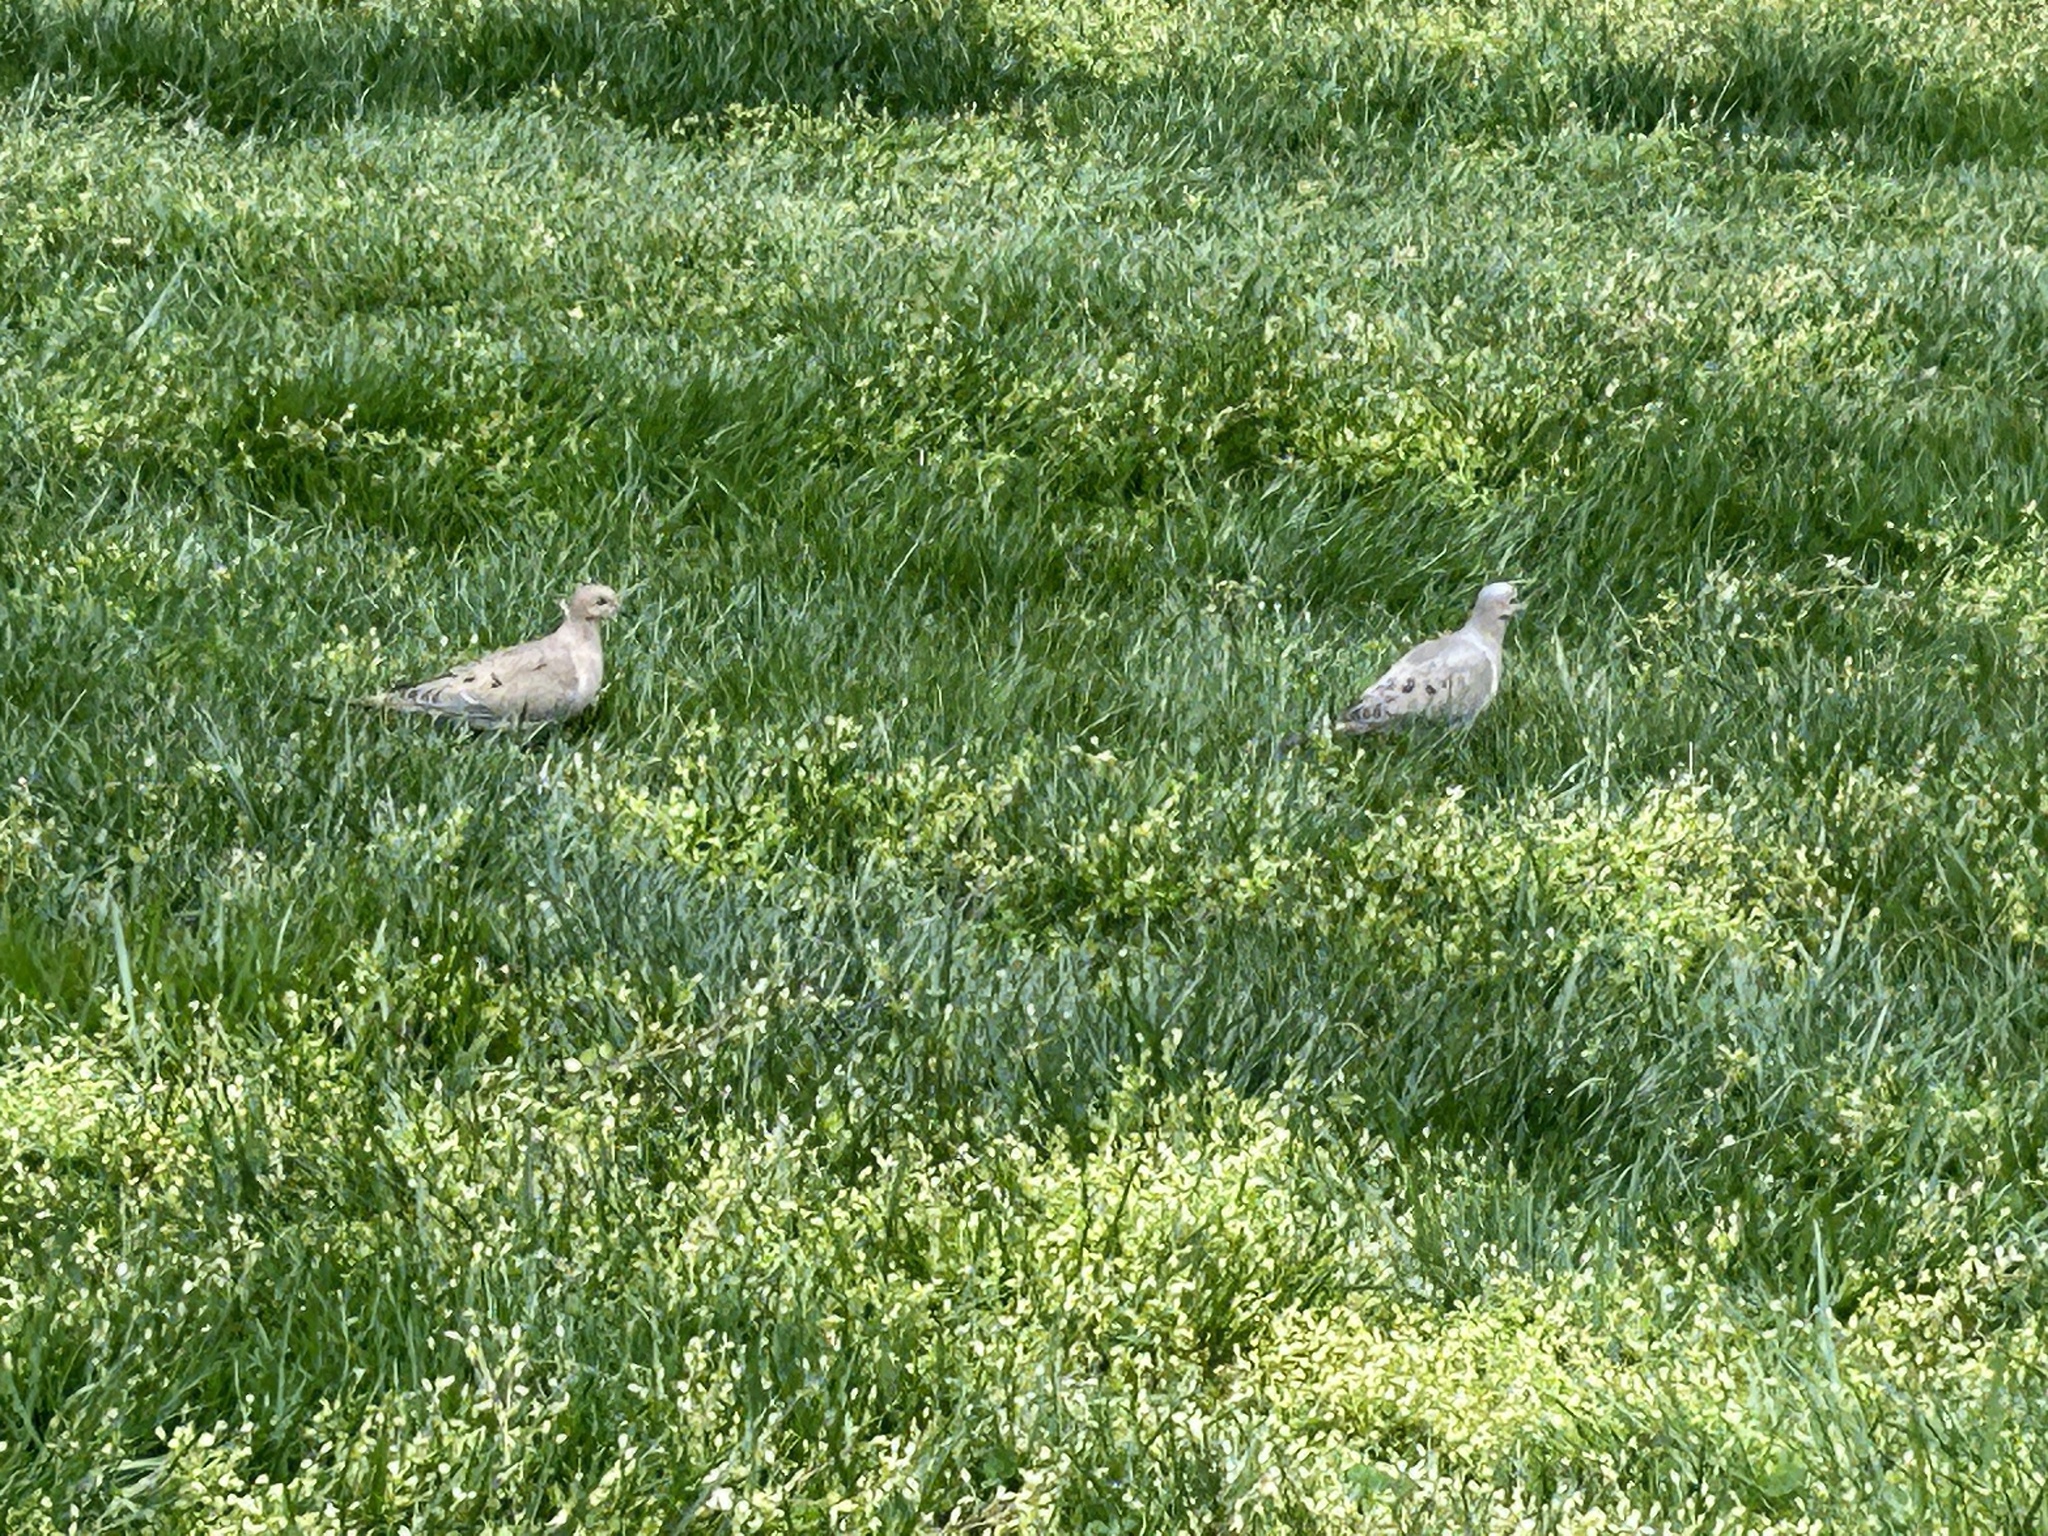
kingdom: Animalia
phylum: Chordata
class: Aves
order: Columbiformes
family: Columbidae
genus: Zenaida
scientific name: Zenaida macroura
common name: Mourning dove
